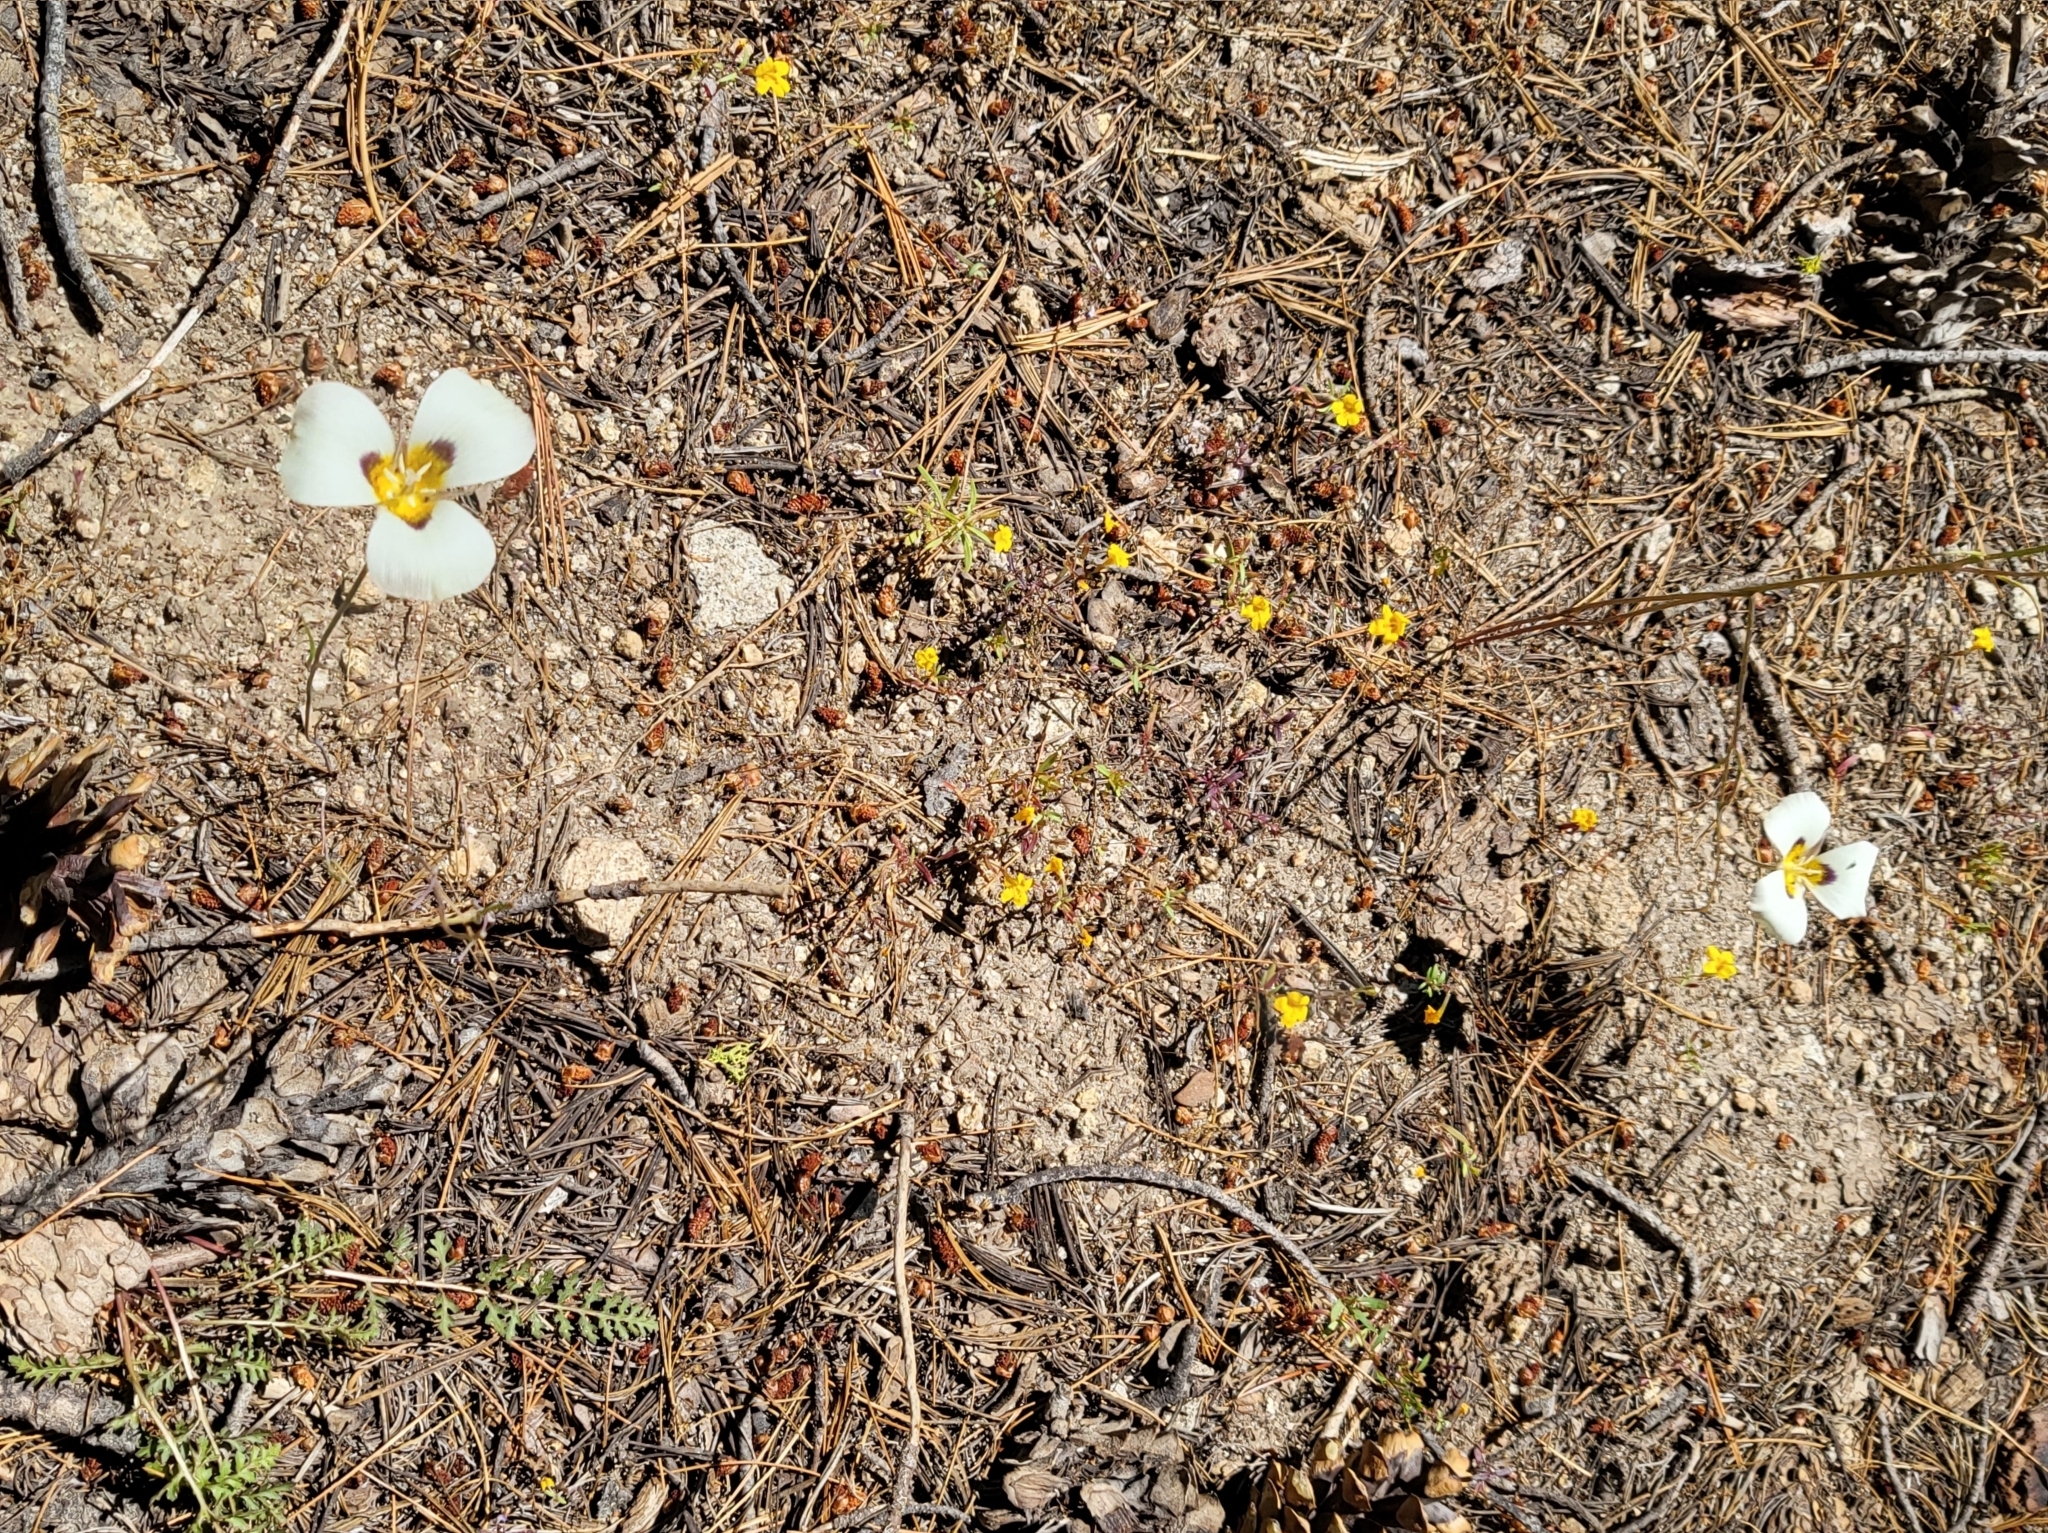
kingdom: Plantae
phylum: Tracheophyta
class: Liliopsida
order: Liliales
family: Liliaceae
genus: Calochortus
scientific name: Calochortus leichtlinii
